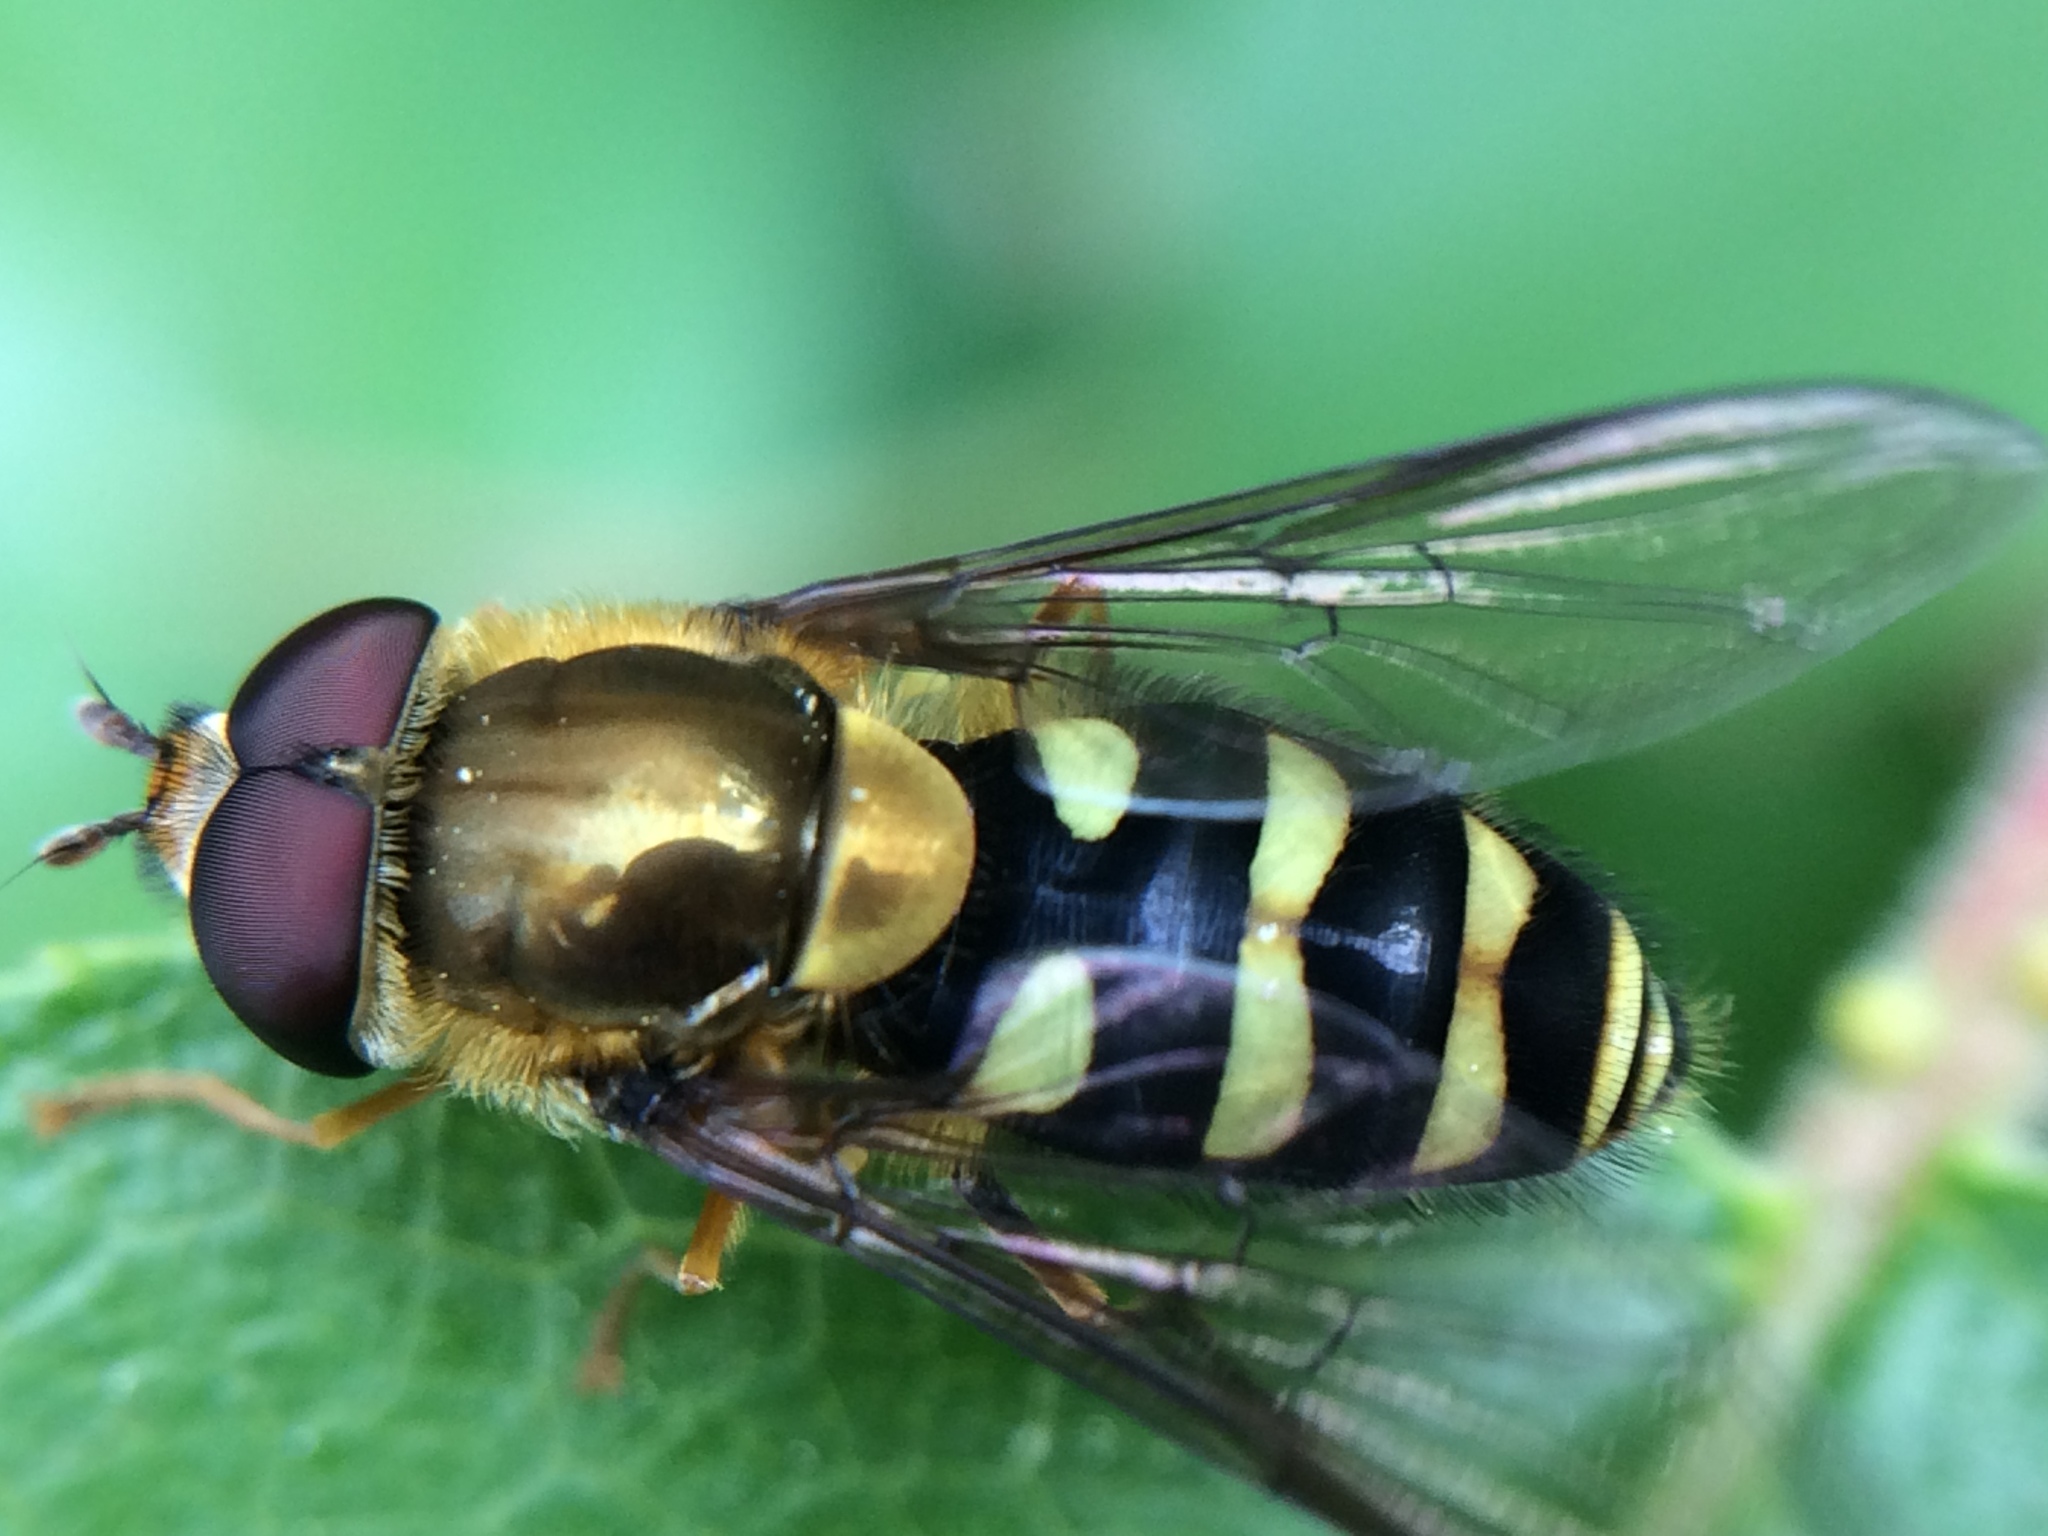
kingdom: Animalia
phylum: Arthropoda
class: Insecta
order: Diptera
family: Syrphidae
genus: Syrphus
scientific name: Syrphus opinator
